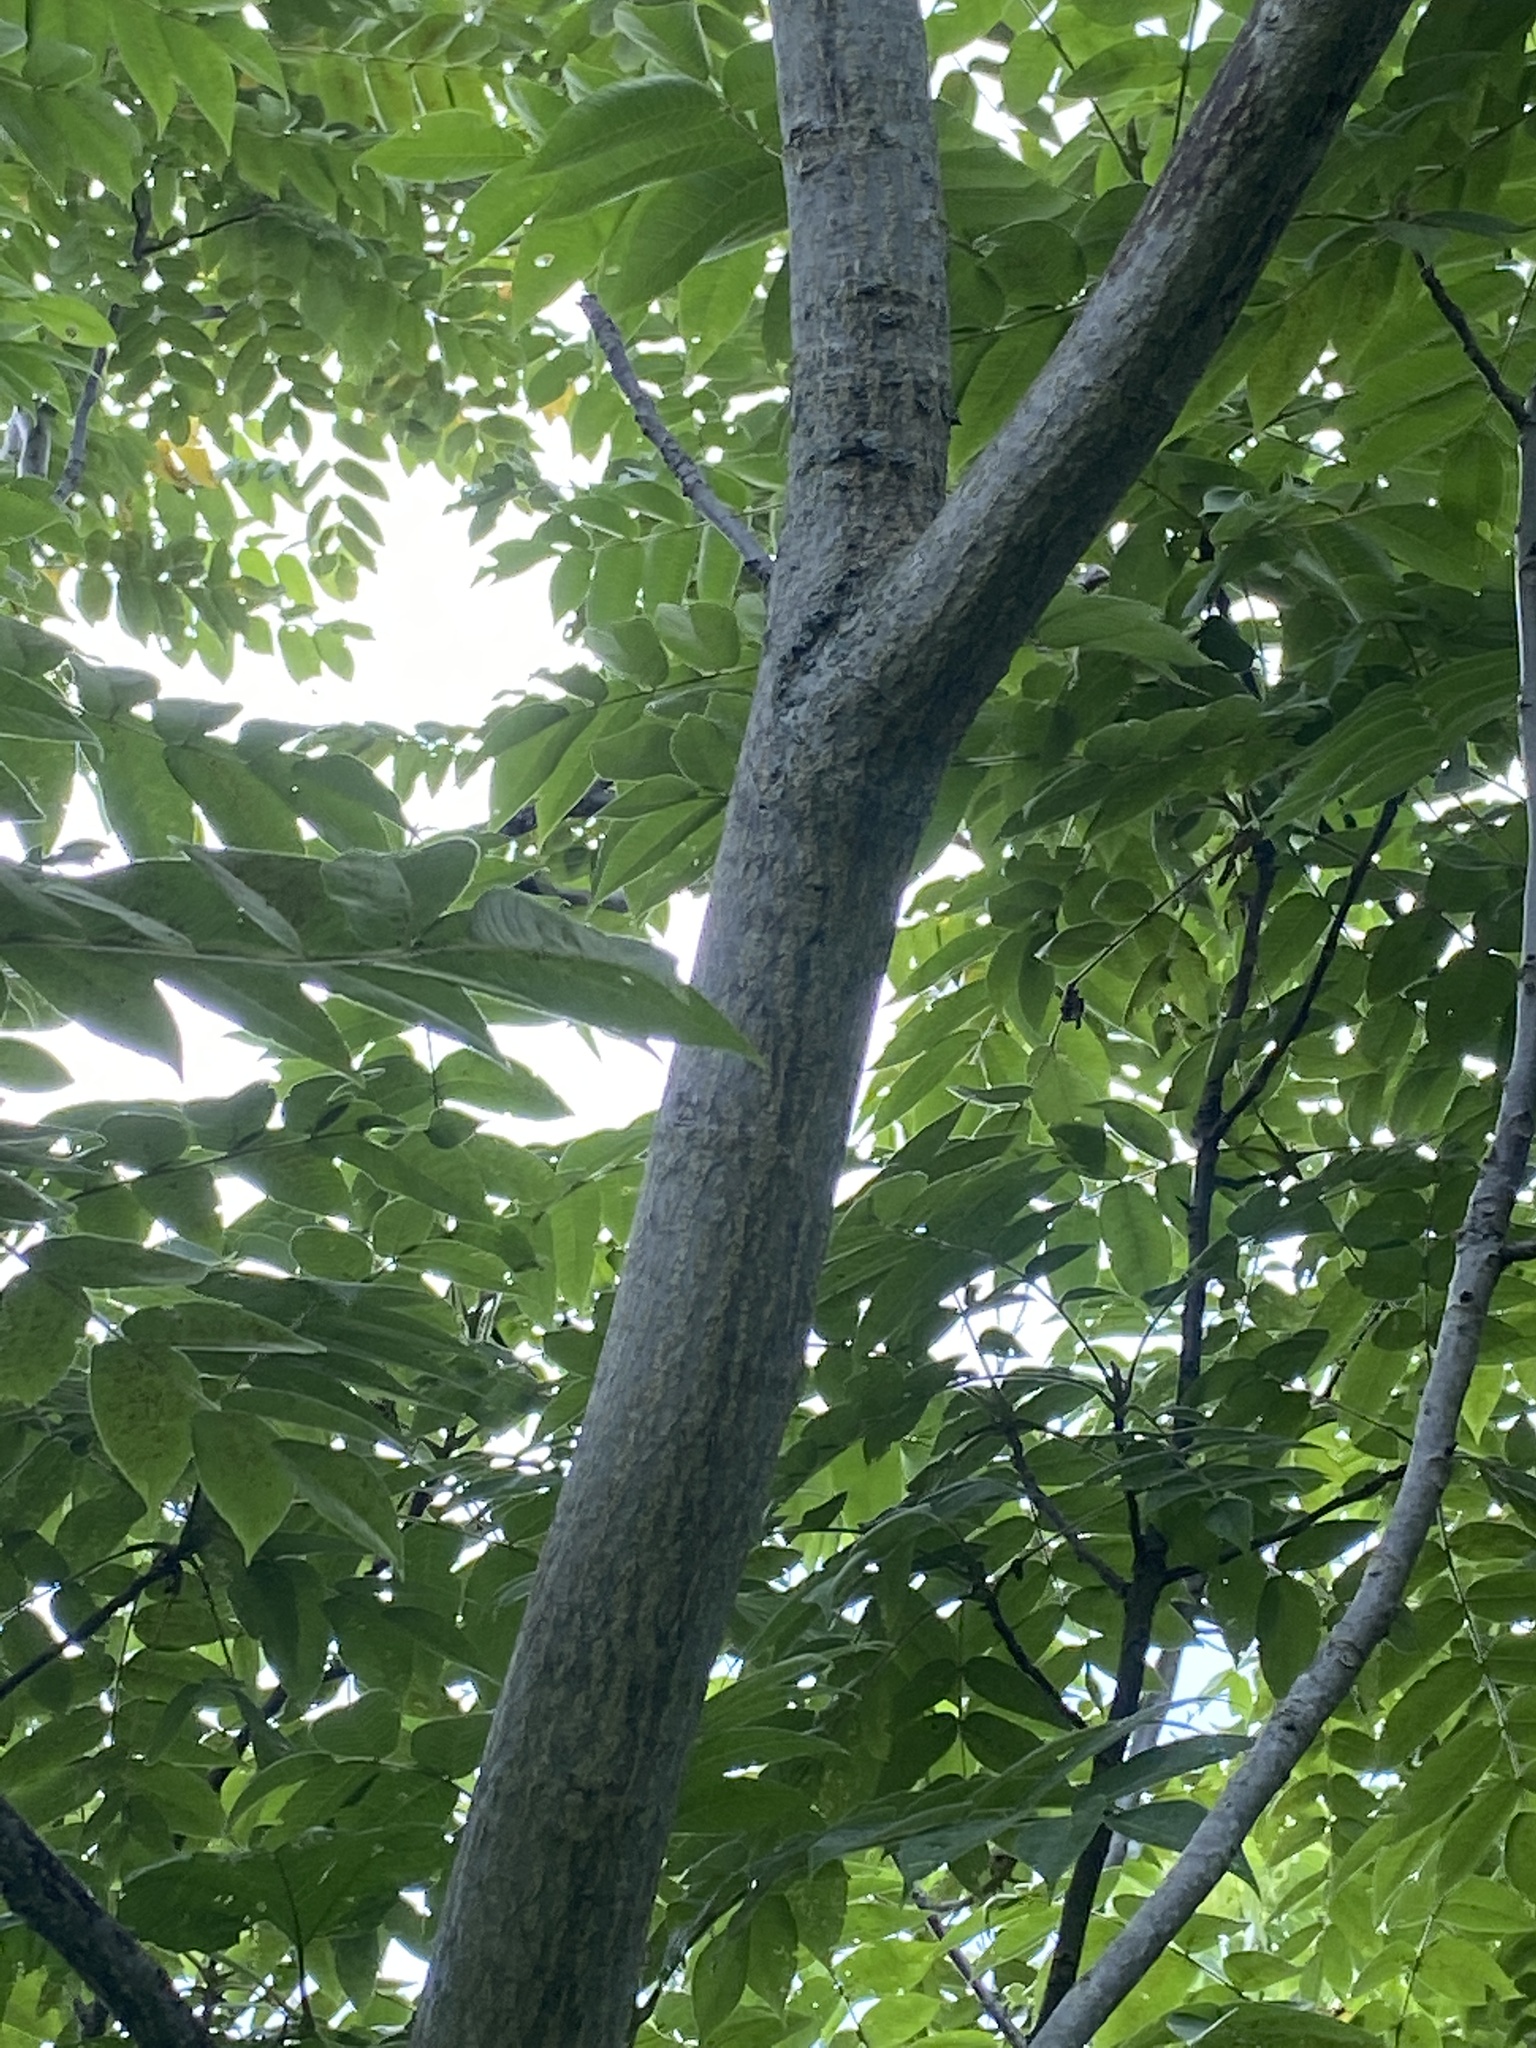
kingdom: Plantae
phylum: Tracheophyta
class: Magnoliopsida
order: Fagales
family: Juglandaceae
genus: Juglans
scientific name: Juglans cinerea
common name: Butternut
